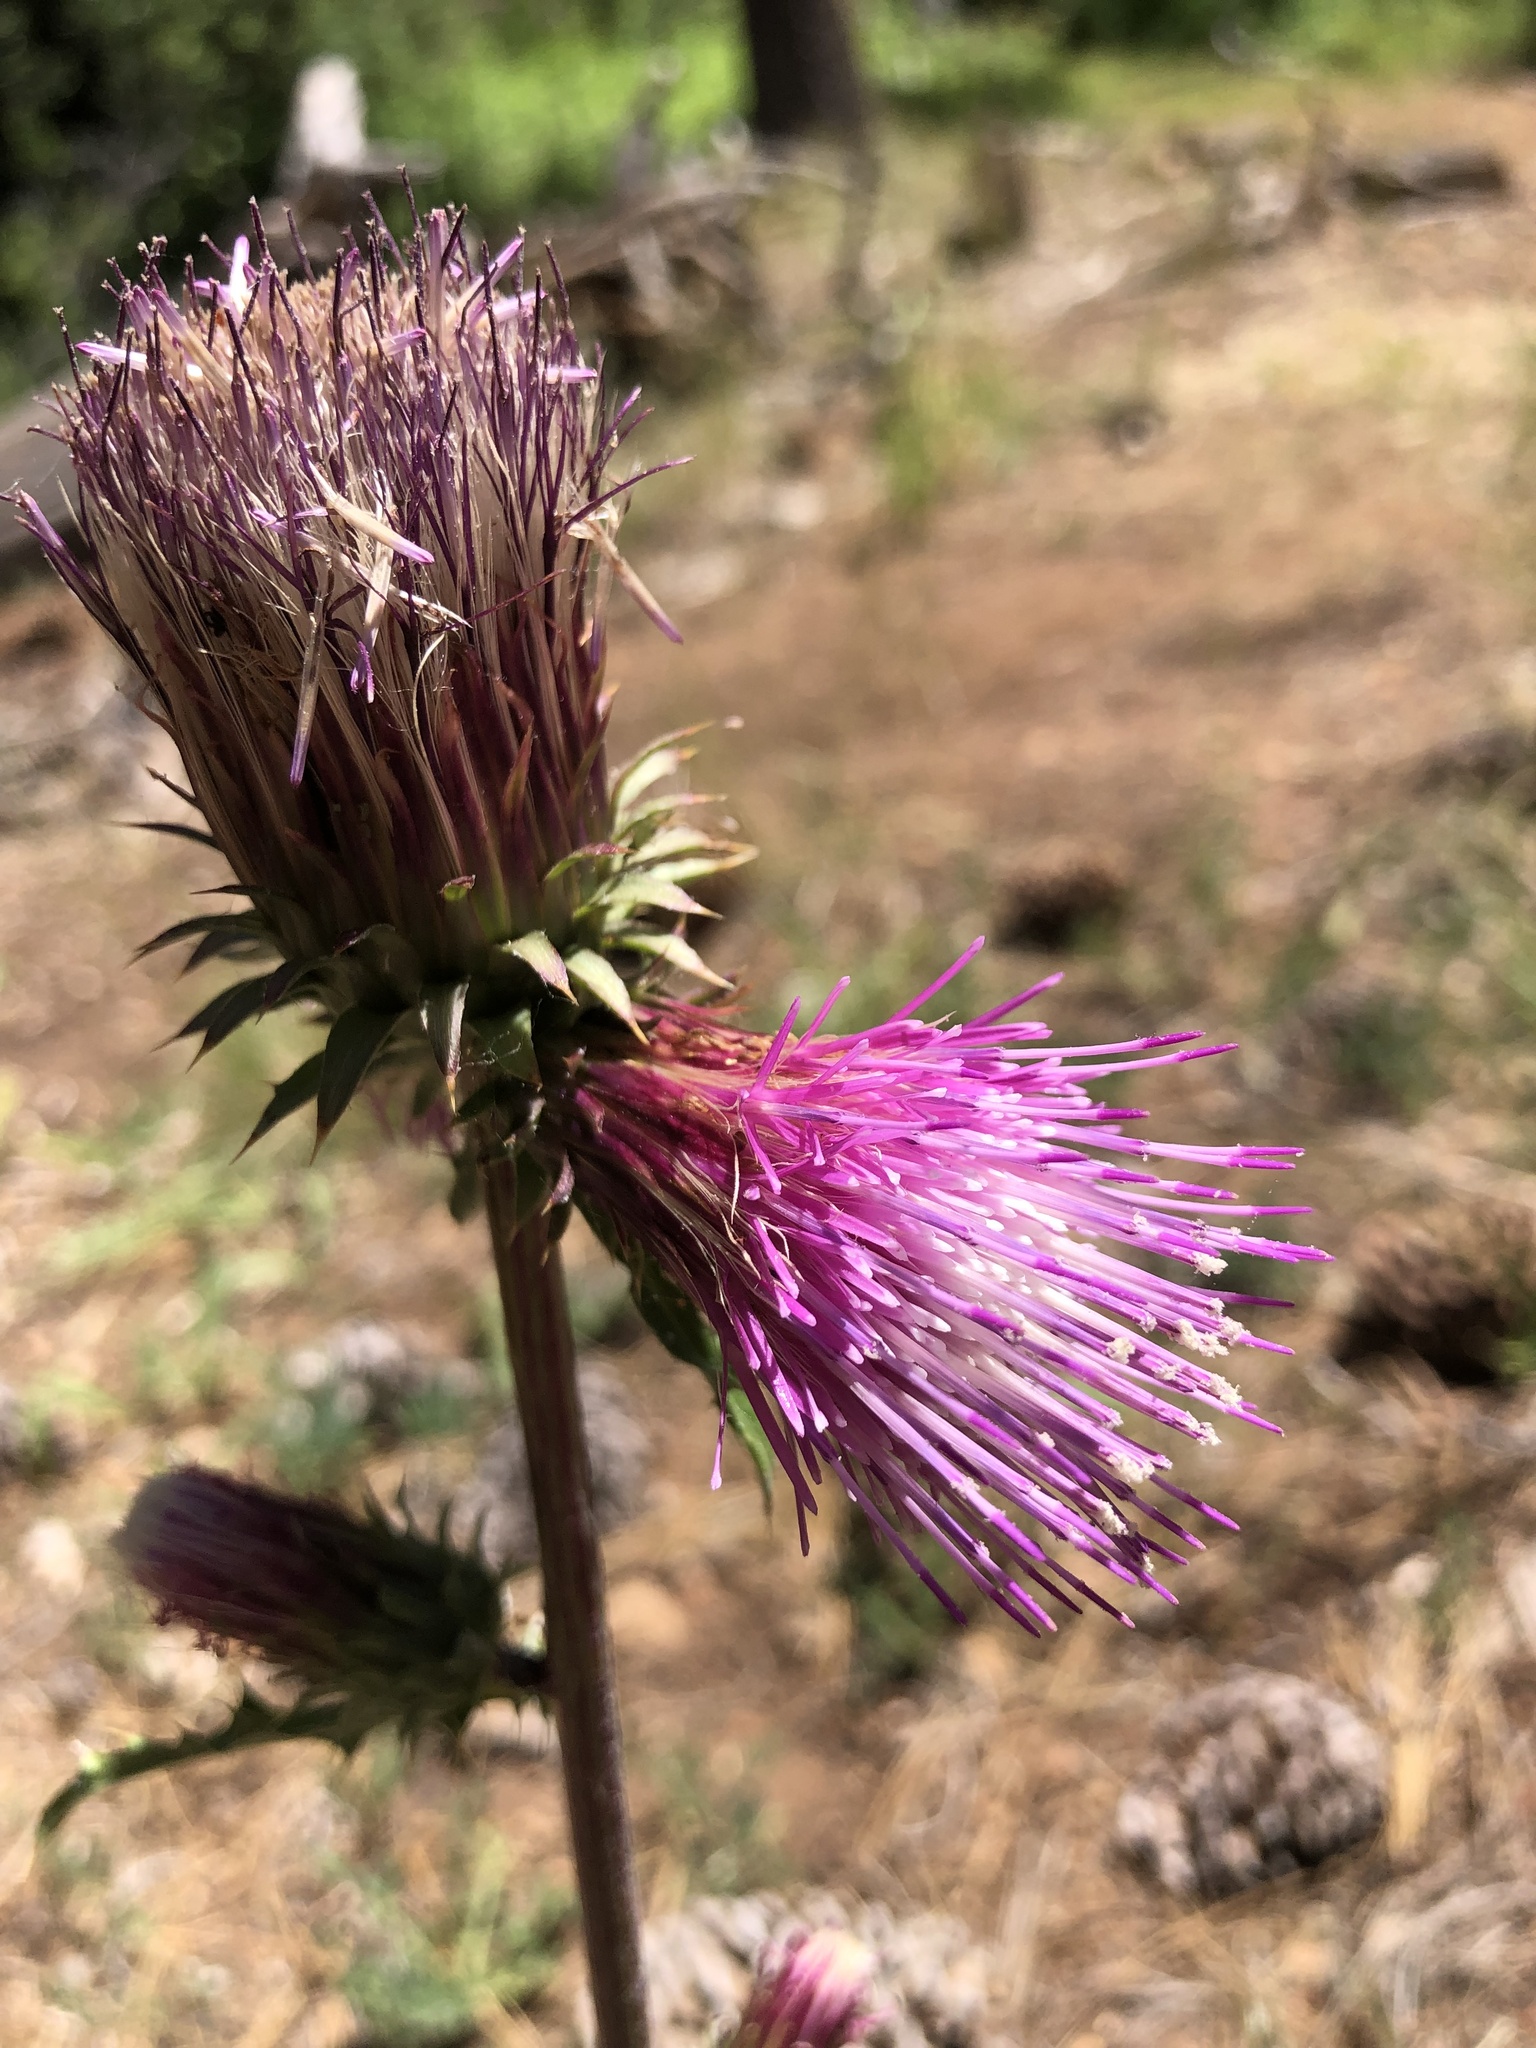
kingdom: Plantae
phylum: Tracheophyta
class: Magnoliopsida
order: Asterales
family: Asteraceae
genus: Cirsium
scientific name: Cirsium andersonii
